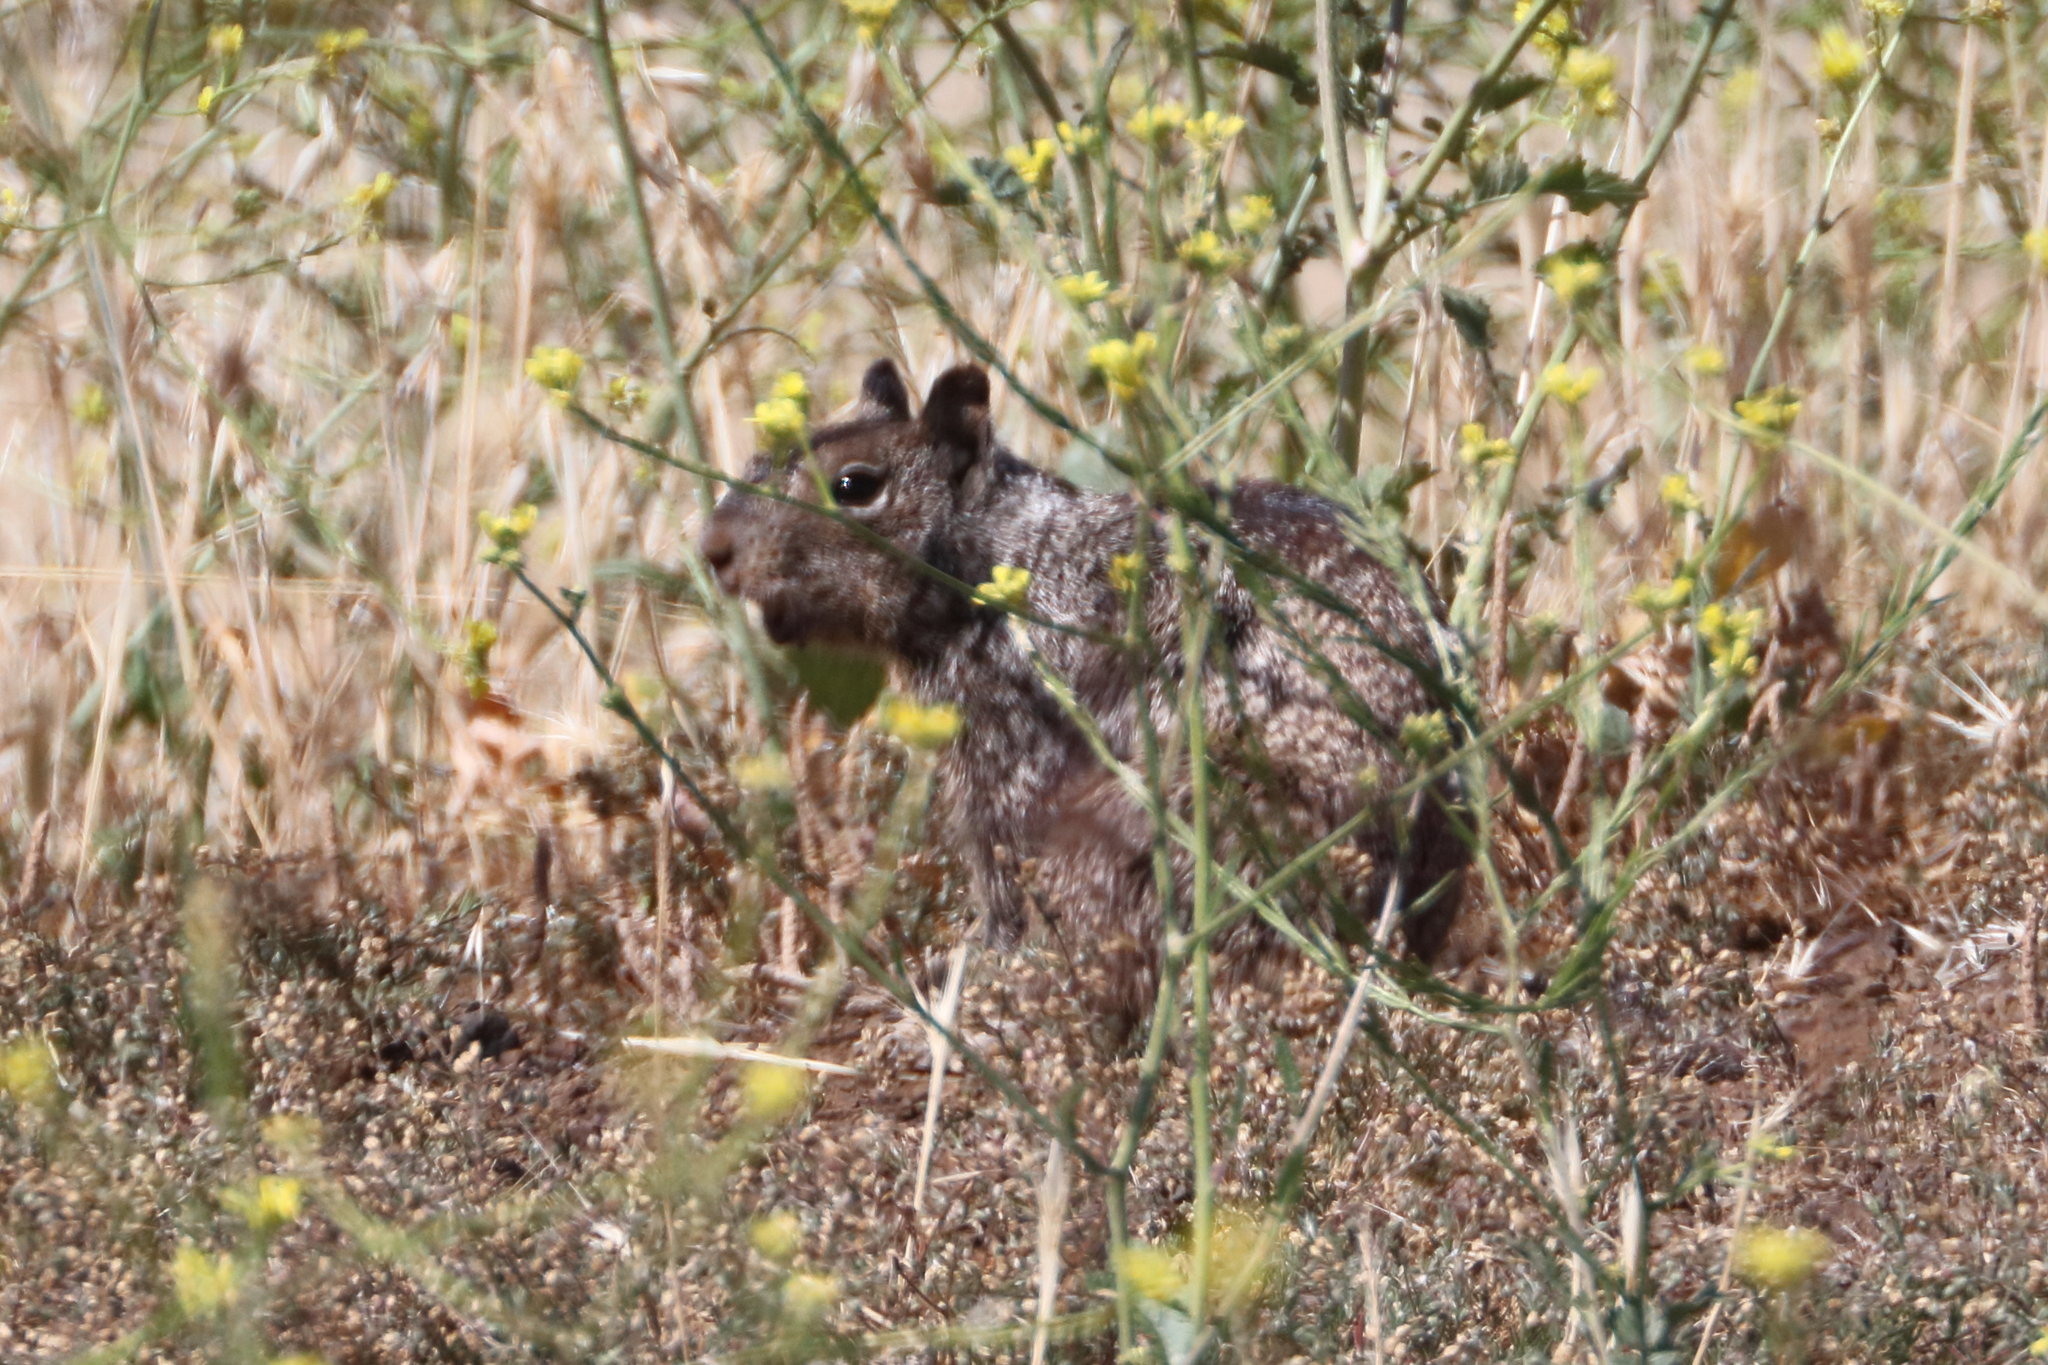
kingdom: Animalia
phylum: Chordata
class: Mammalia
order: Rodentia
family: Sciuridae
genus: Otospermophilus
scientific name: Otospermophilus beecheyi
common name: California ground squirrel
